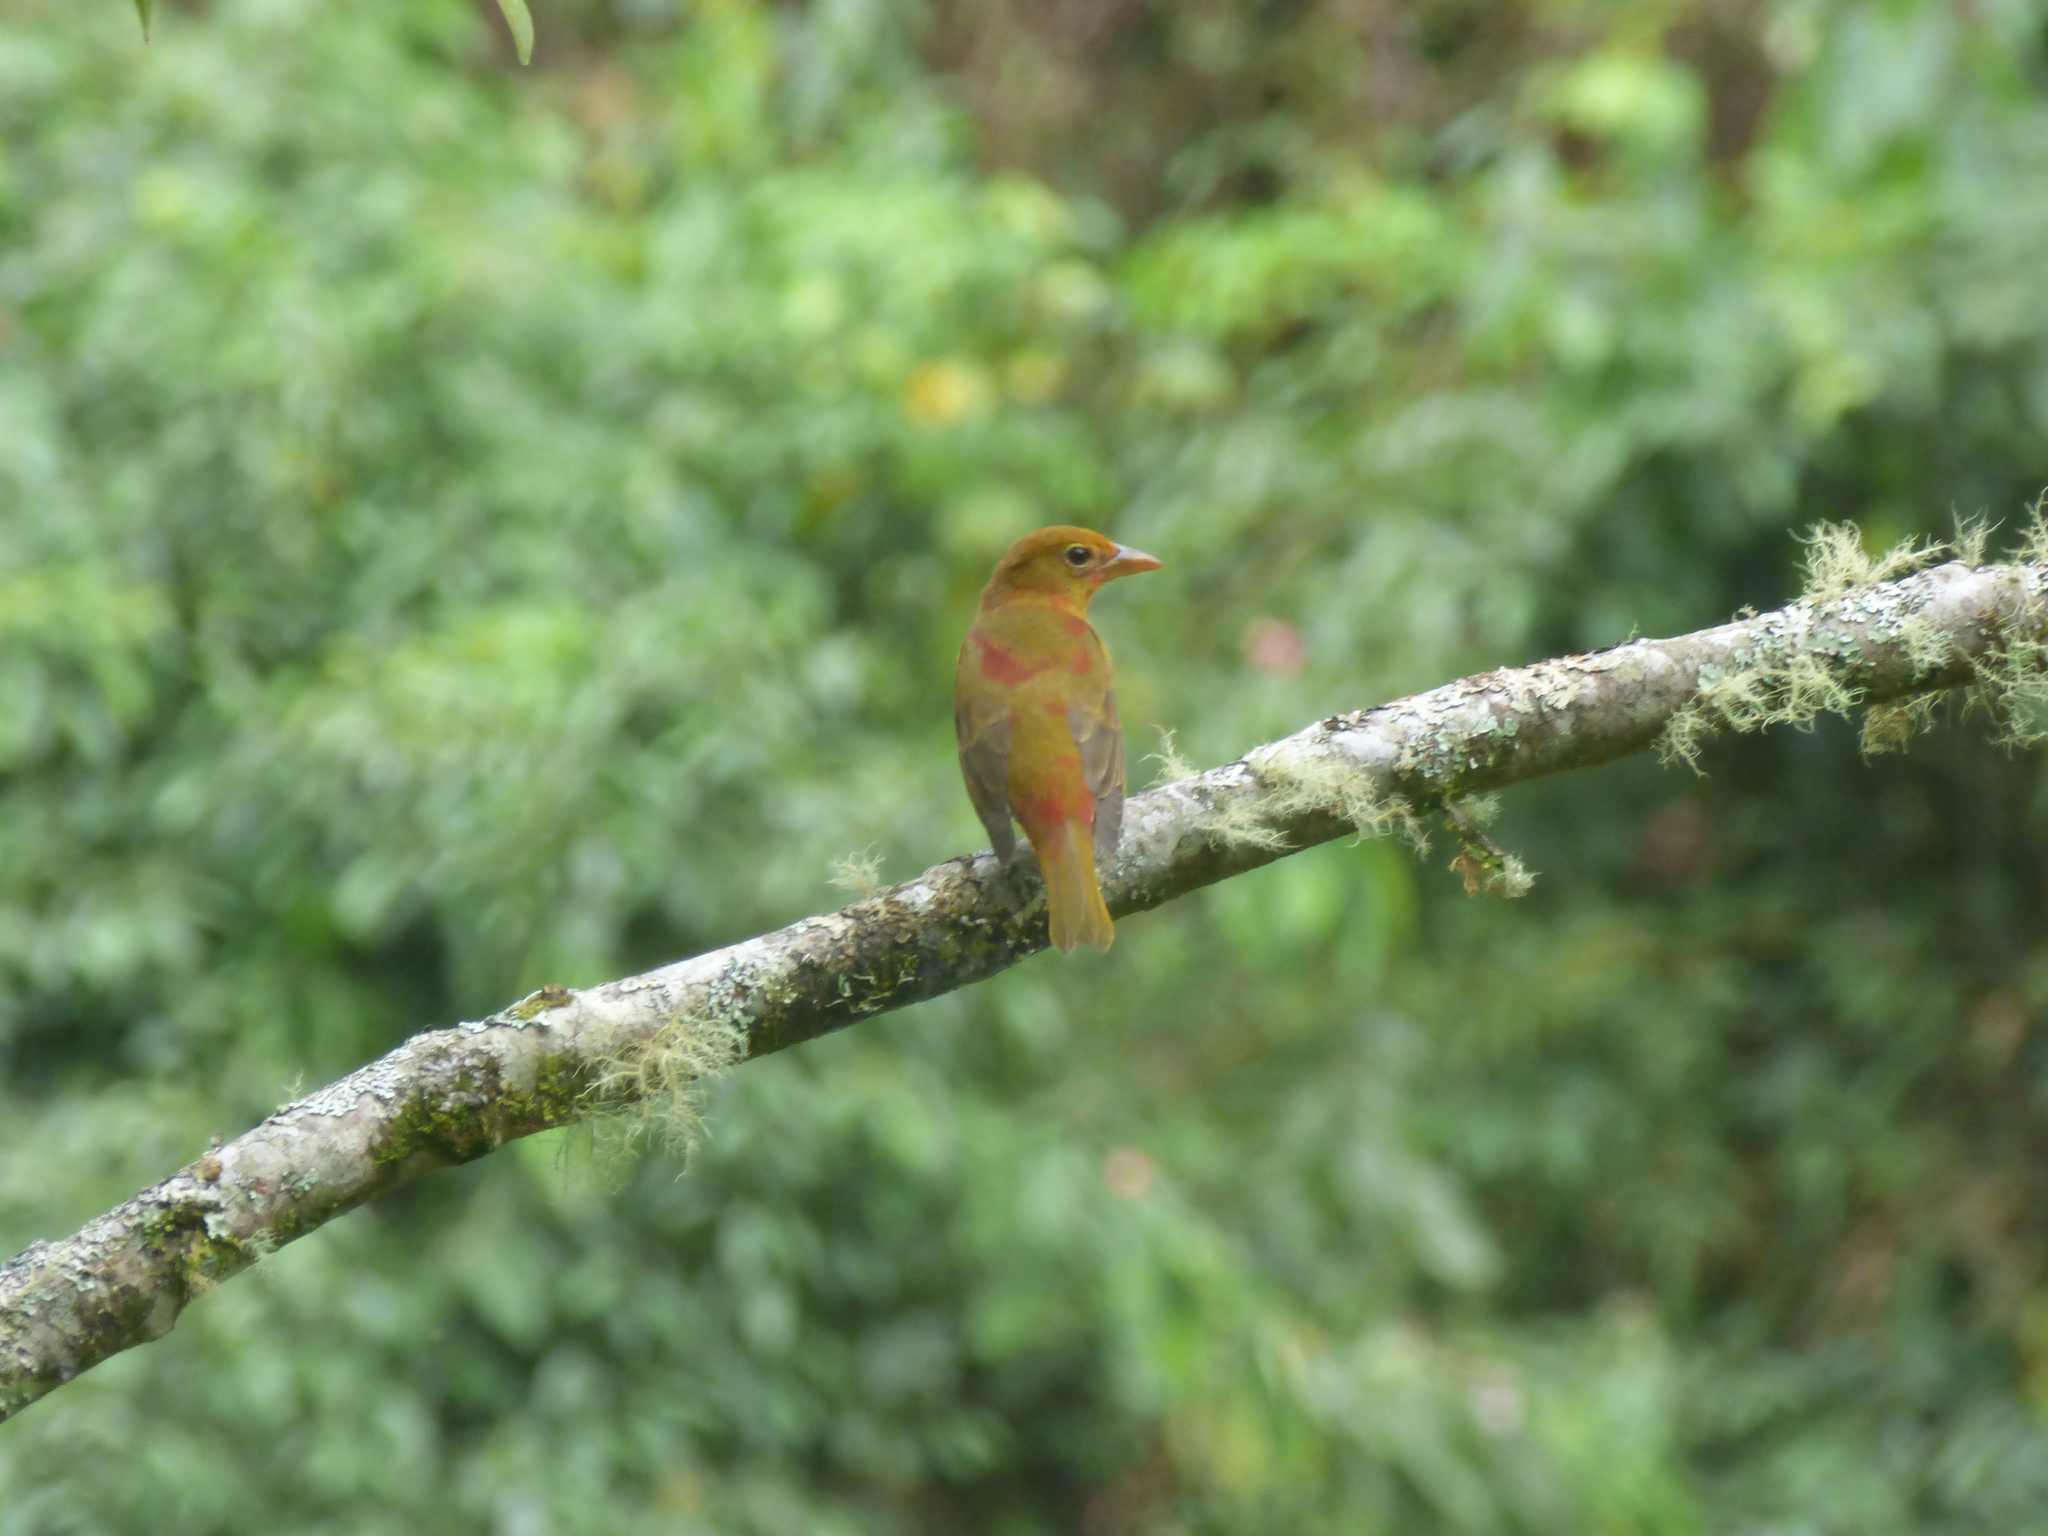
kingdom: Animalia
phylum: Chordata
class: Aves
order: Passeriformes
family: Cardinalidae
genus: Piranga
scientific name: Piranga rubra
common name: Summer tanager
